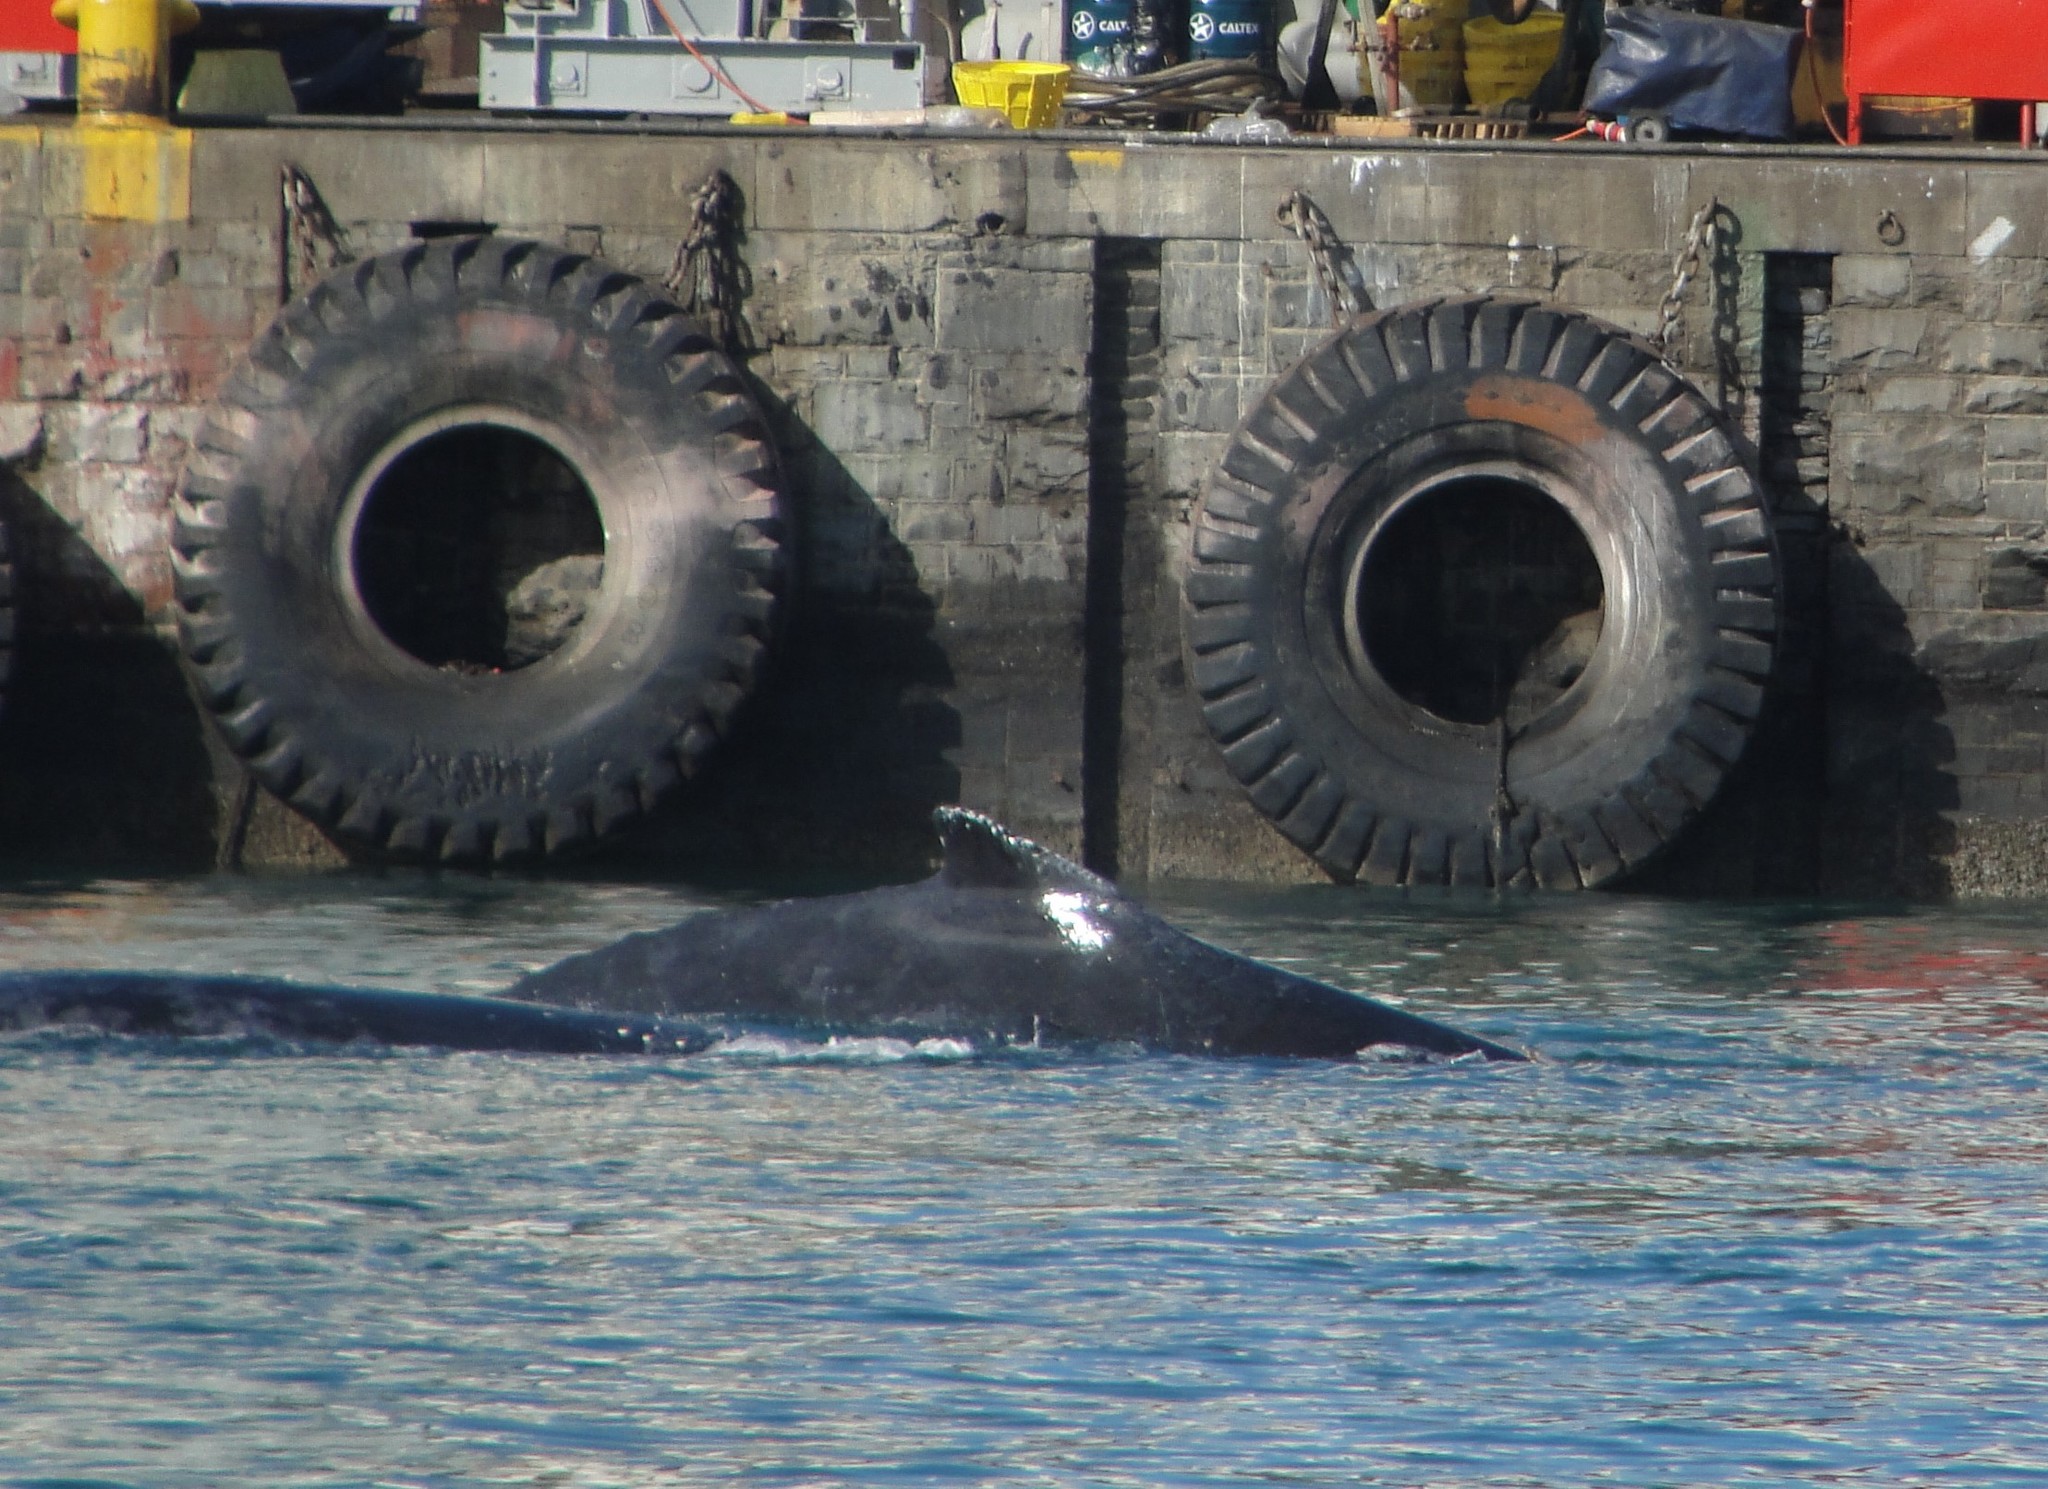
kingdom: Animalia
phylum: Chordata
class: Mammalia
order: Cetacea
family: Balaenopteridae
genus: Megaptera
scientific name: Megaptera novaeangliae
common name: Humpback whale
